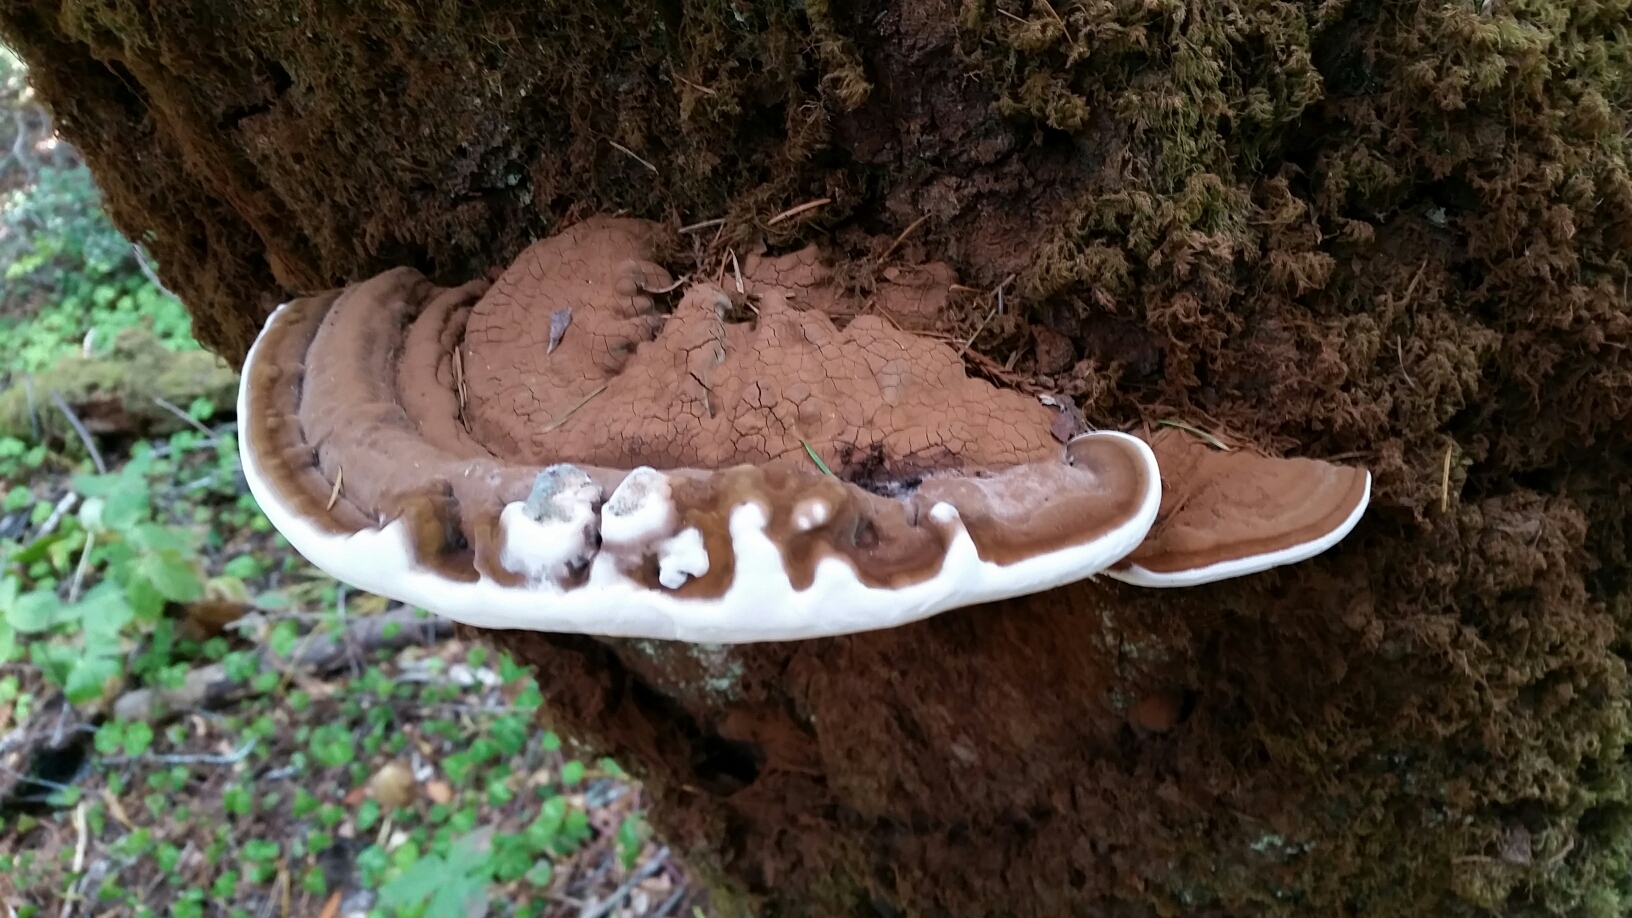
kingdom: Fungi
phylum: Basidiomycota
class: Agaricomycetes
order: Polyporales
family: Polyporaceae
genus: Ganoderma
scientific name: Ganoderma brownii
